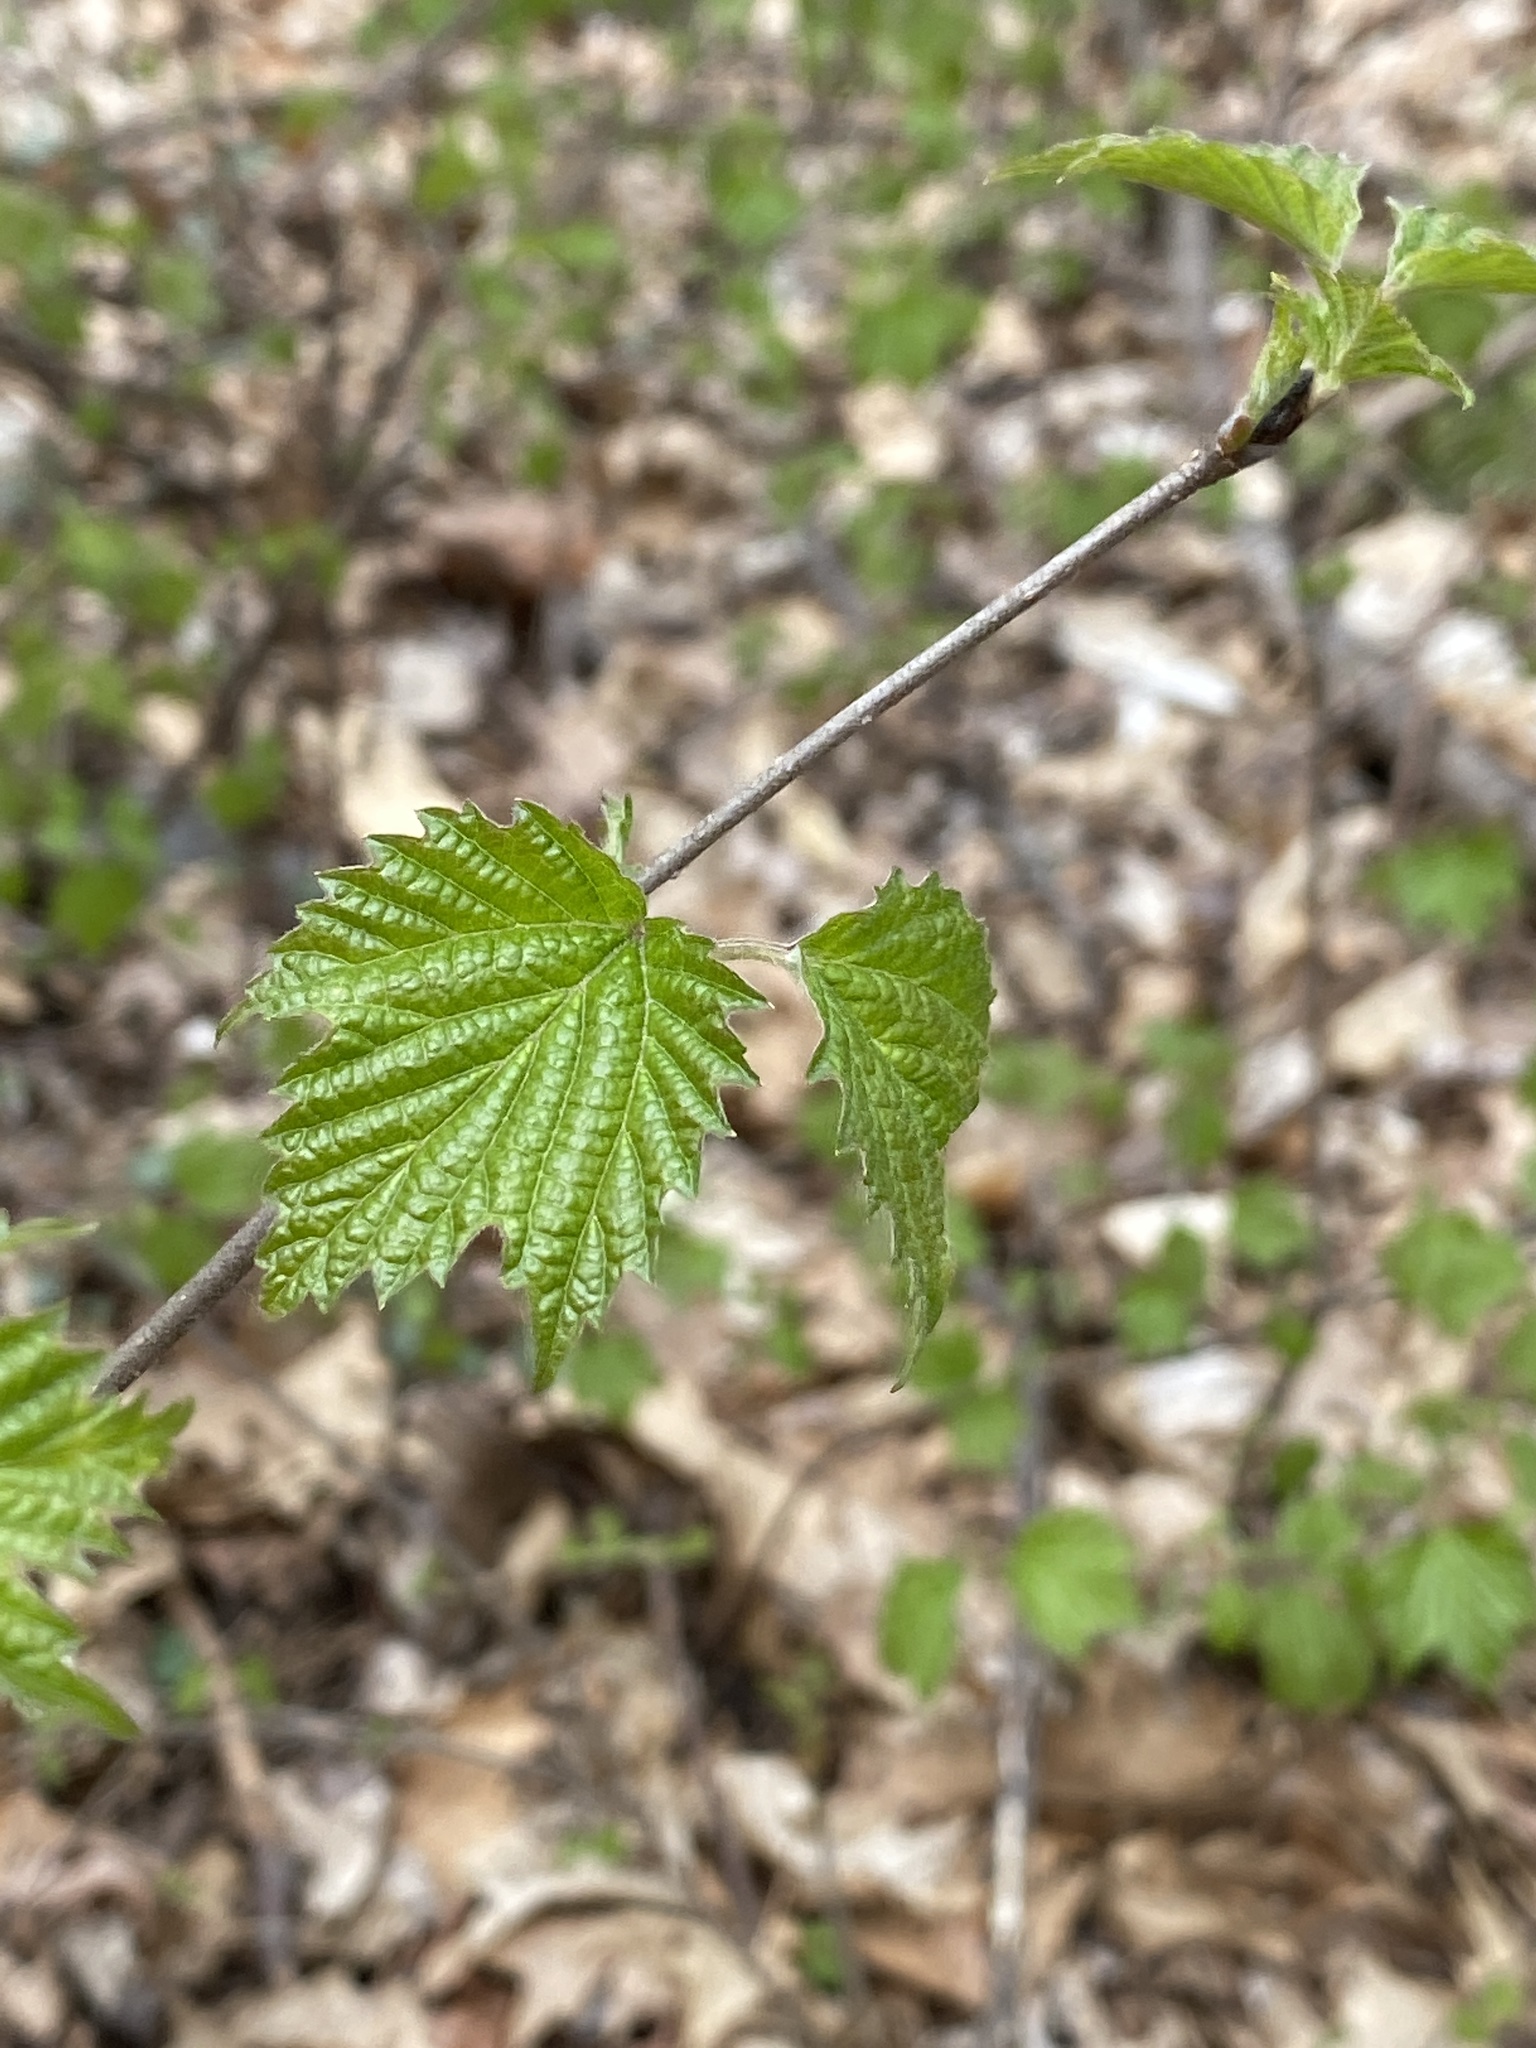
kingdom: Plantae
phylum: Tracheophyta
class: Magnoliopsida
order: Dipsacales
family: Viburnaceae
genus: Viburnum
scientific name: Viburnum acerifolium
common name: Dockmackie
